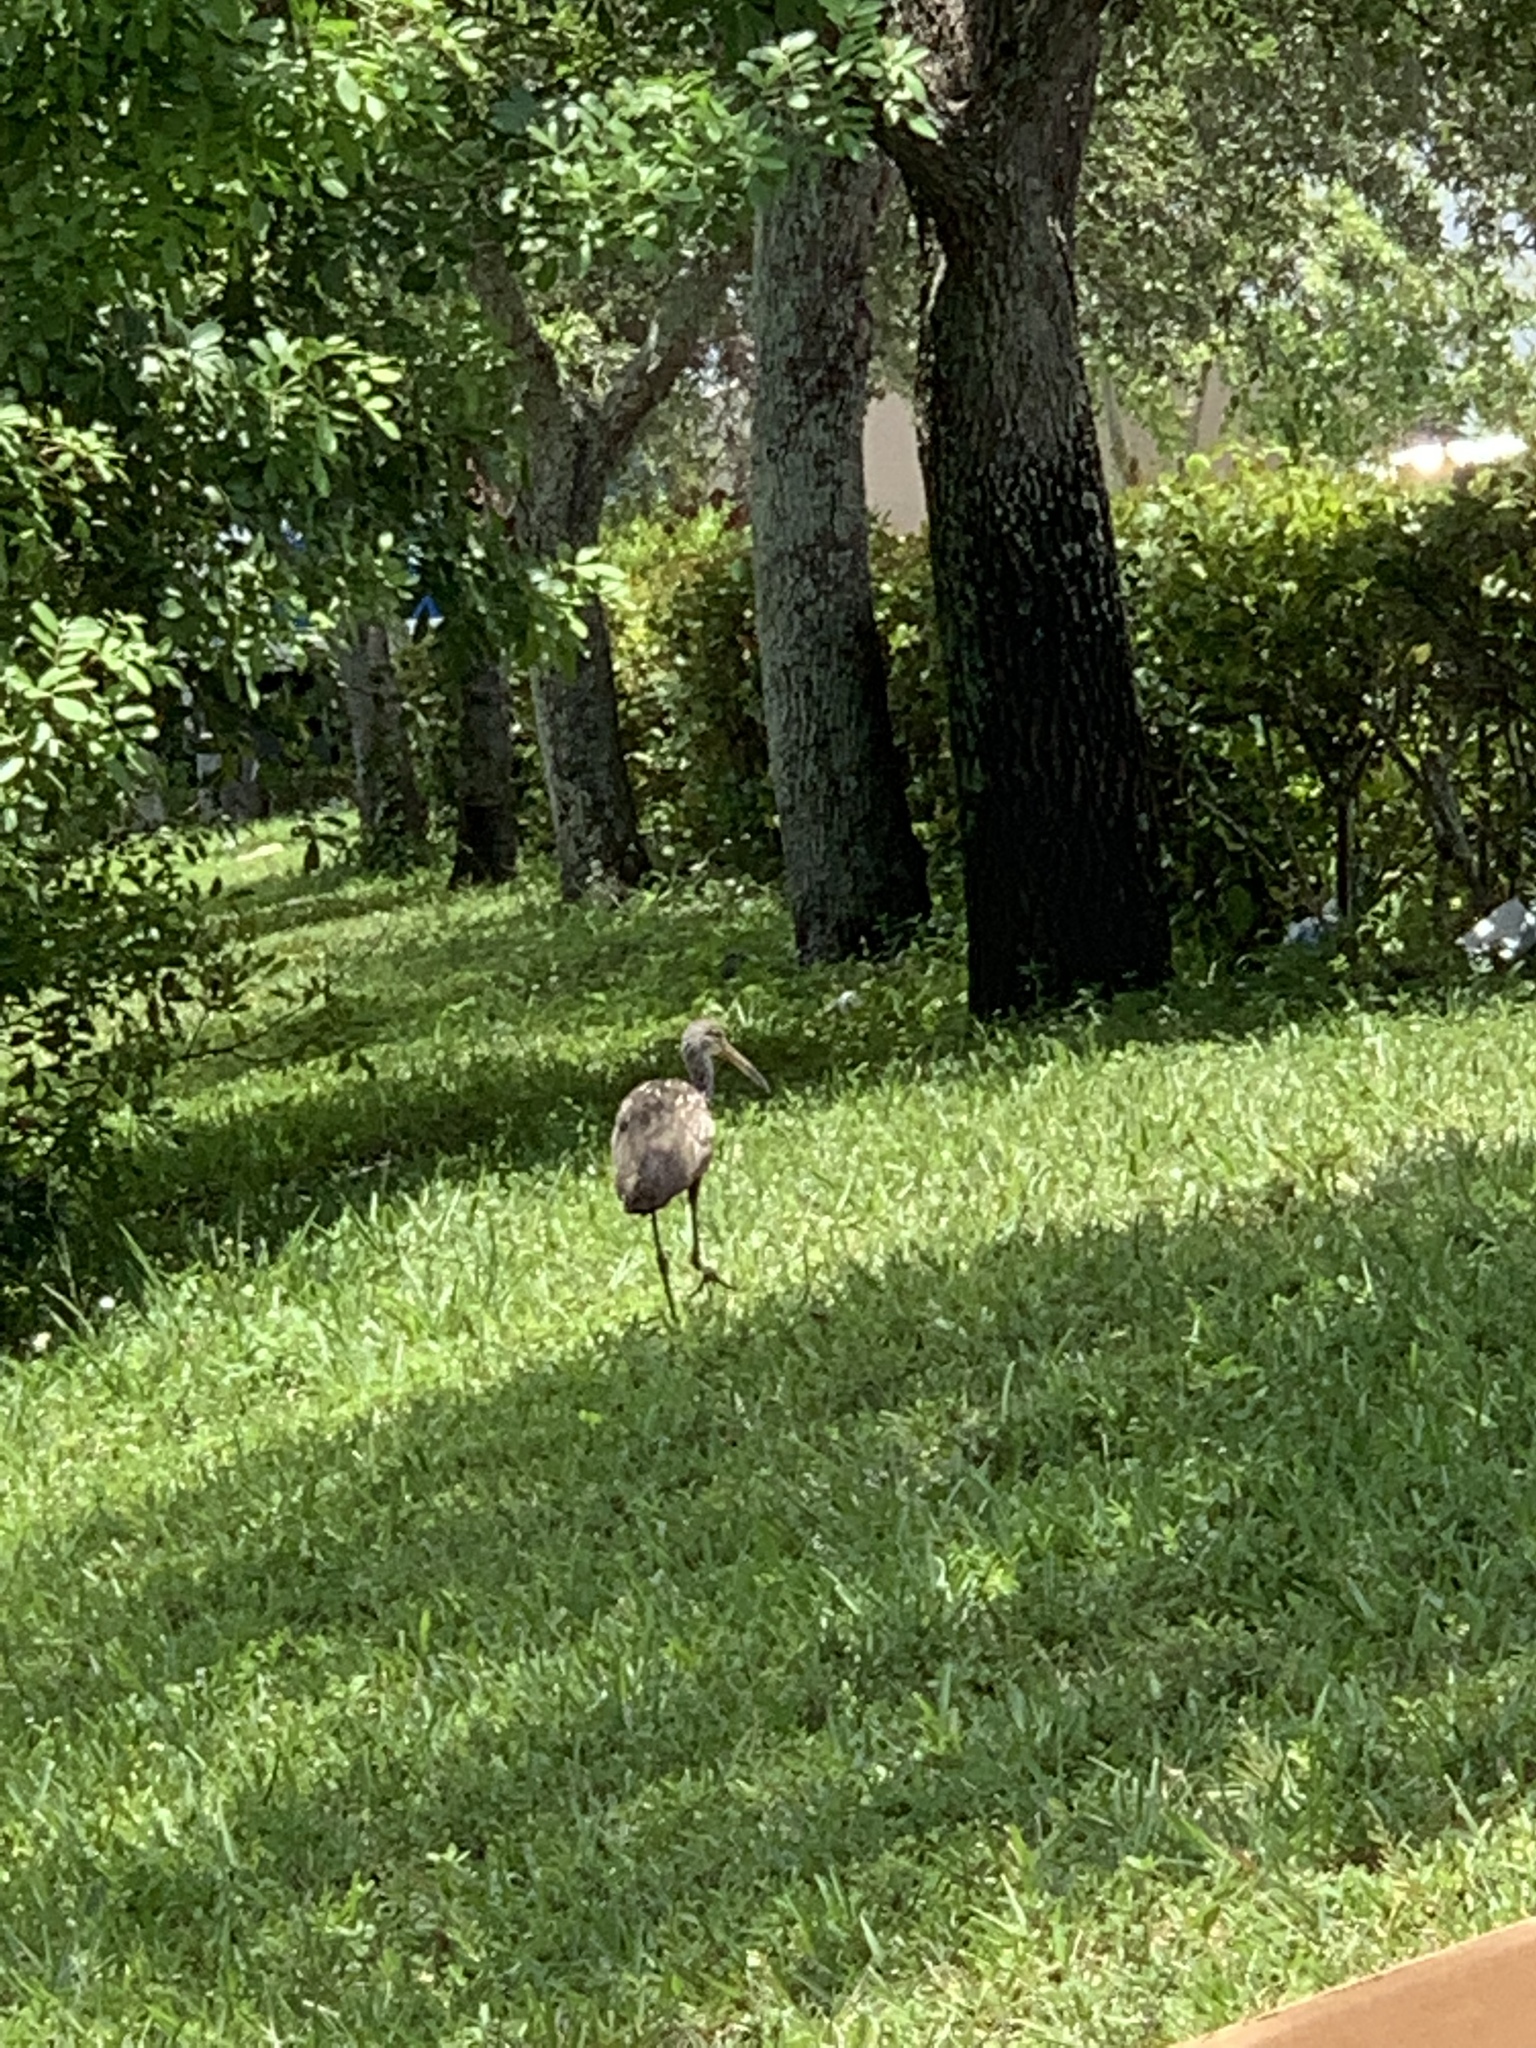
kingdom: Animalia
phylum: Chordata
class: Aves
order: Gruiformes
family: Aramidae
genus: Aramus
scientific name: Aramus guarauna
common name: Limpkin
